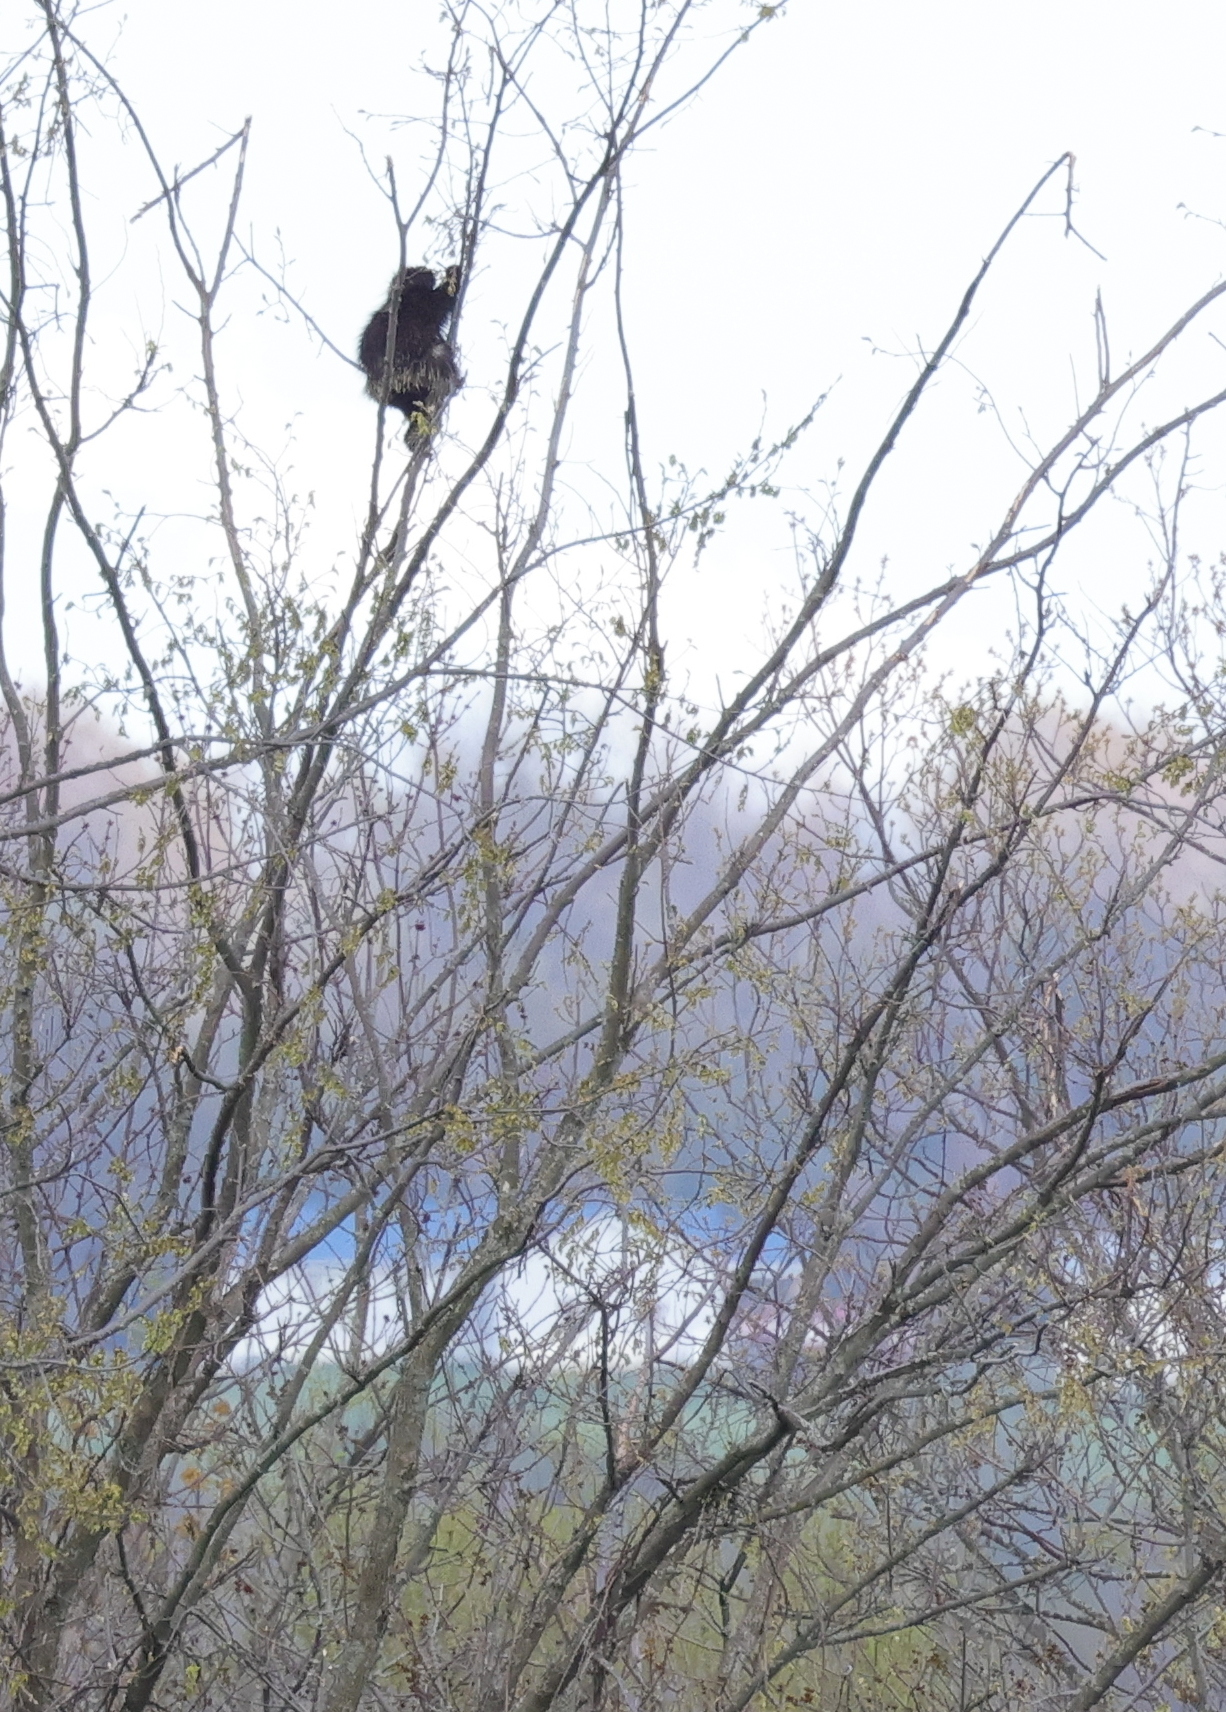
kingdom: Animalia
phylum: Chordata
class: Mammalia
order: Rodentia
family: Erethizontidae
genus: Erethizon
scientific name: Erethizon dorsatus
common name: North american porcupine
